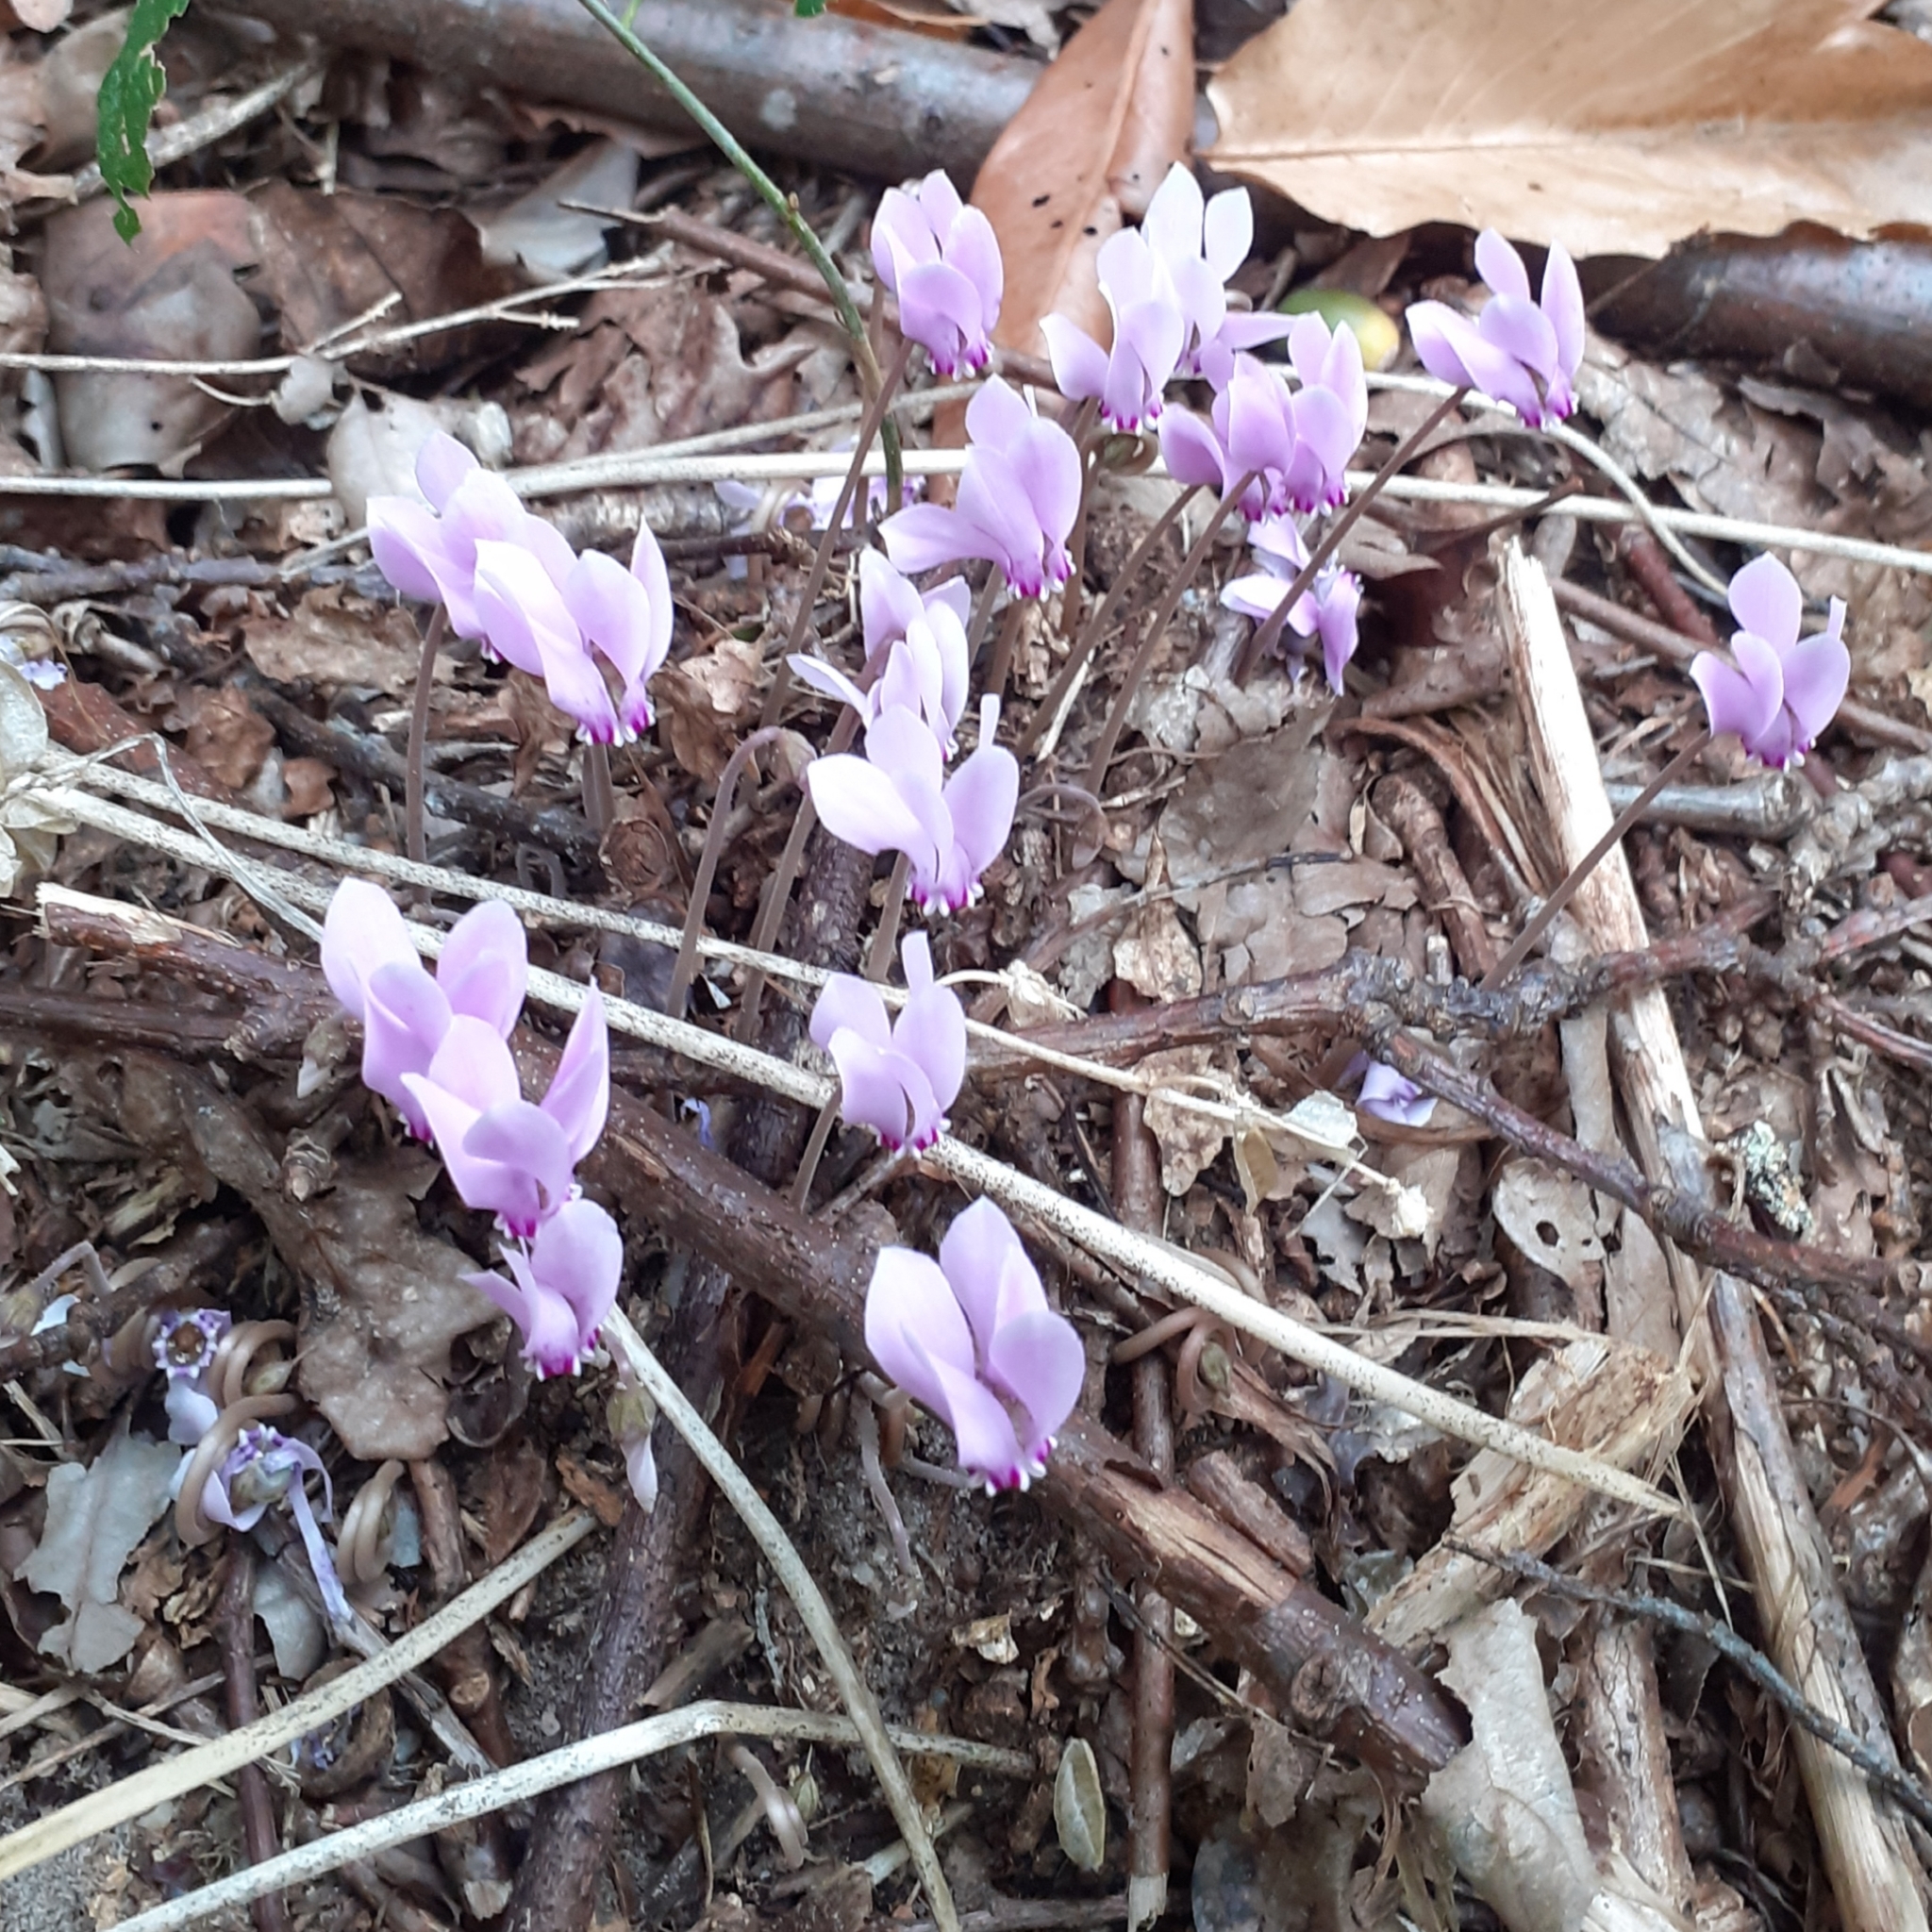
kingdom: Plantae
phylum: Tracheophyta
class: Magnoliopsida
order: Ericales
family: Primulaceae
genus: Cyclamen
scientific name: Cyclamen hederifolium
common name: Sowbread
